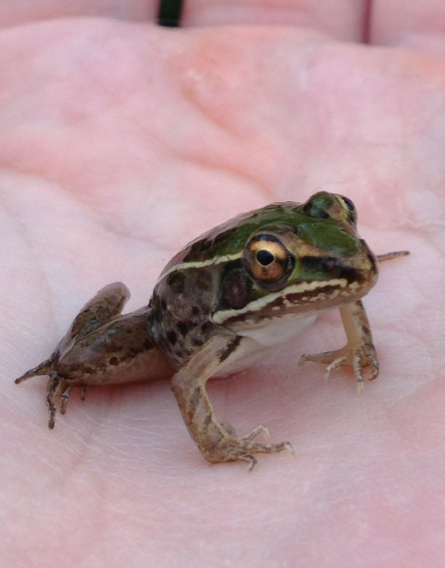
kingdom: Animalia
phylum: Chordata
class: Amphibia
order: Anura
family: Ranidae
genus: Lithobates
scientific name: Lithobates sphenocephalus
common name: Southern leopard frog
